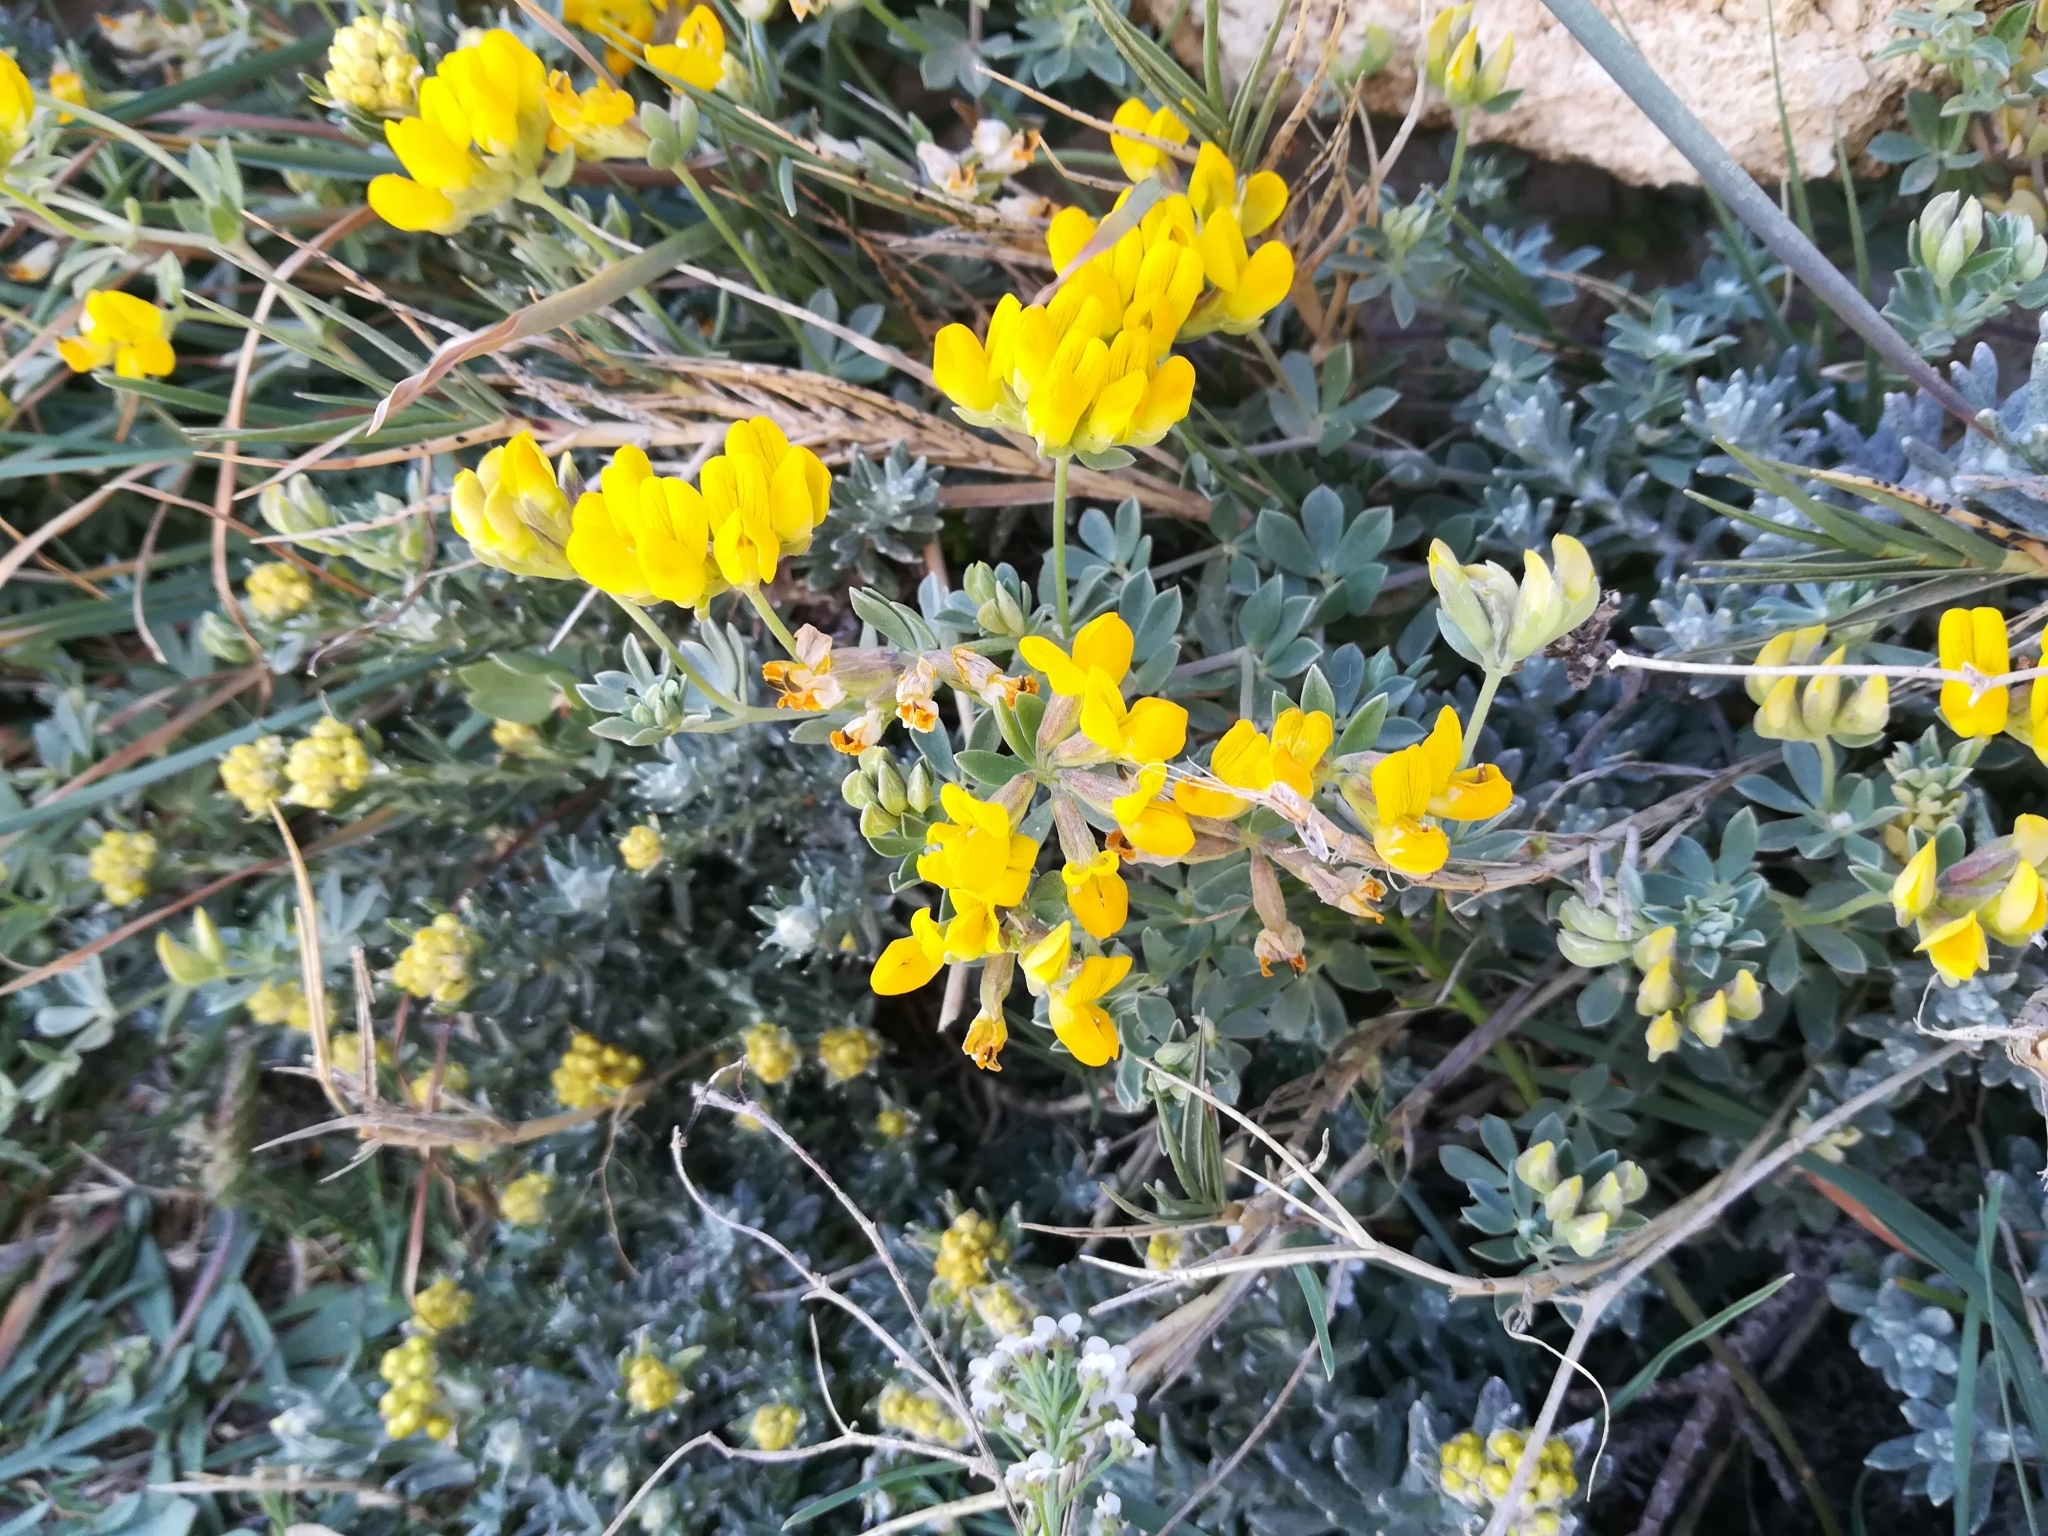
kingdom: Plantae
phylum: Tracheophyta
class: Magnoliopsida
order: Fabales
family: Fabaceae
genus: Lotus
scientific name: Lotus cytisoides
